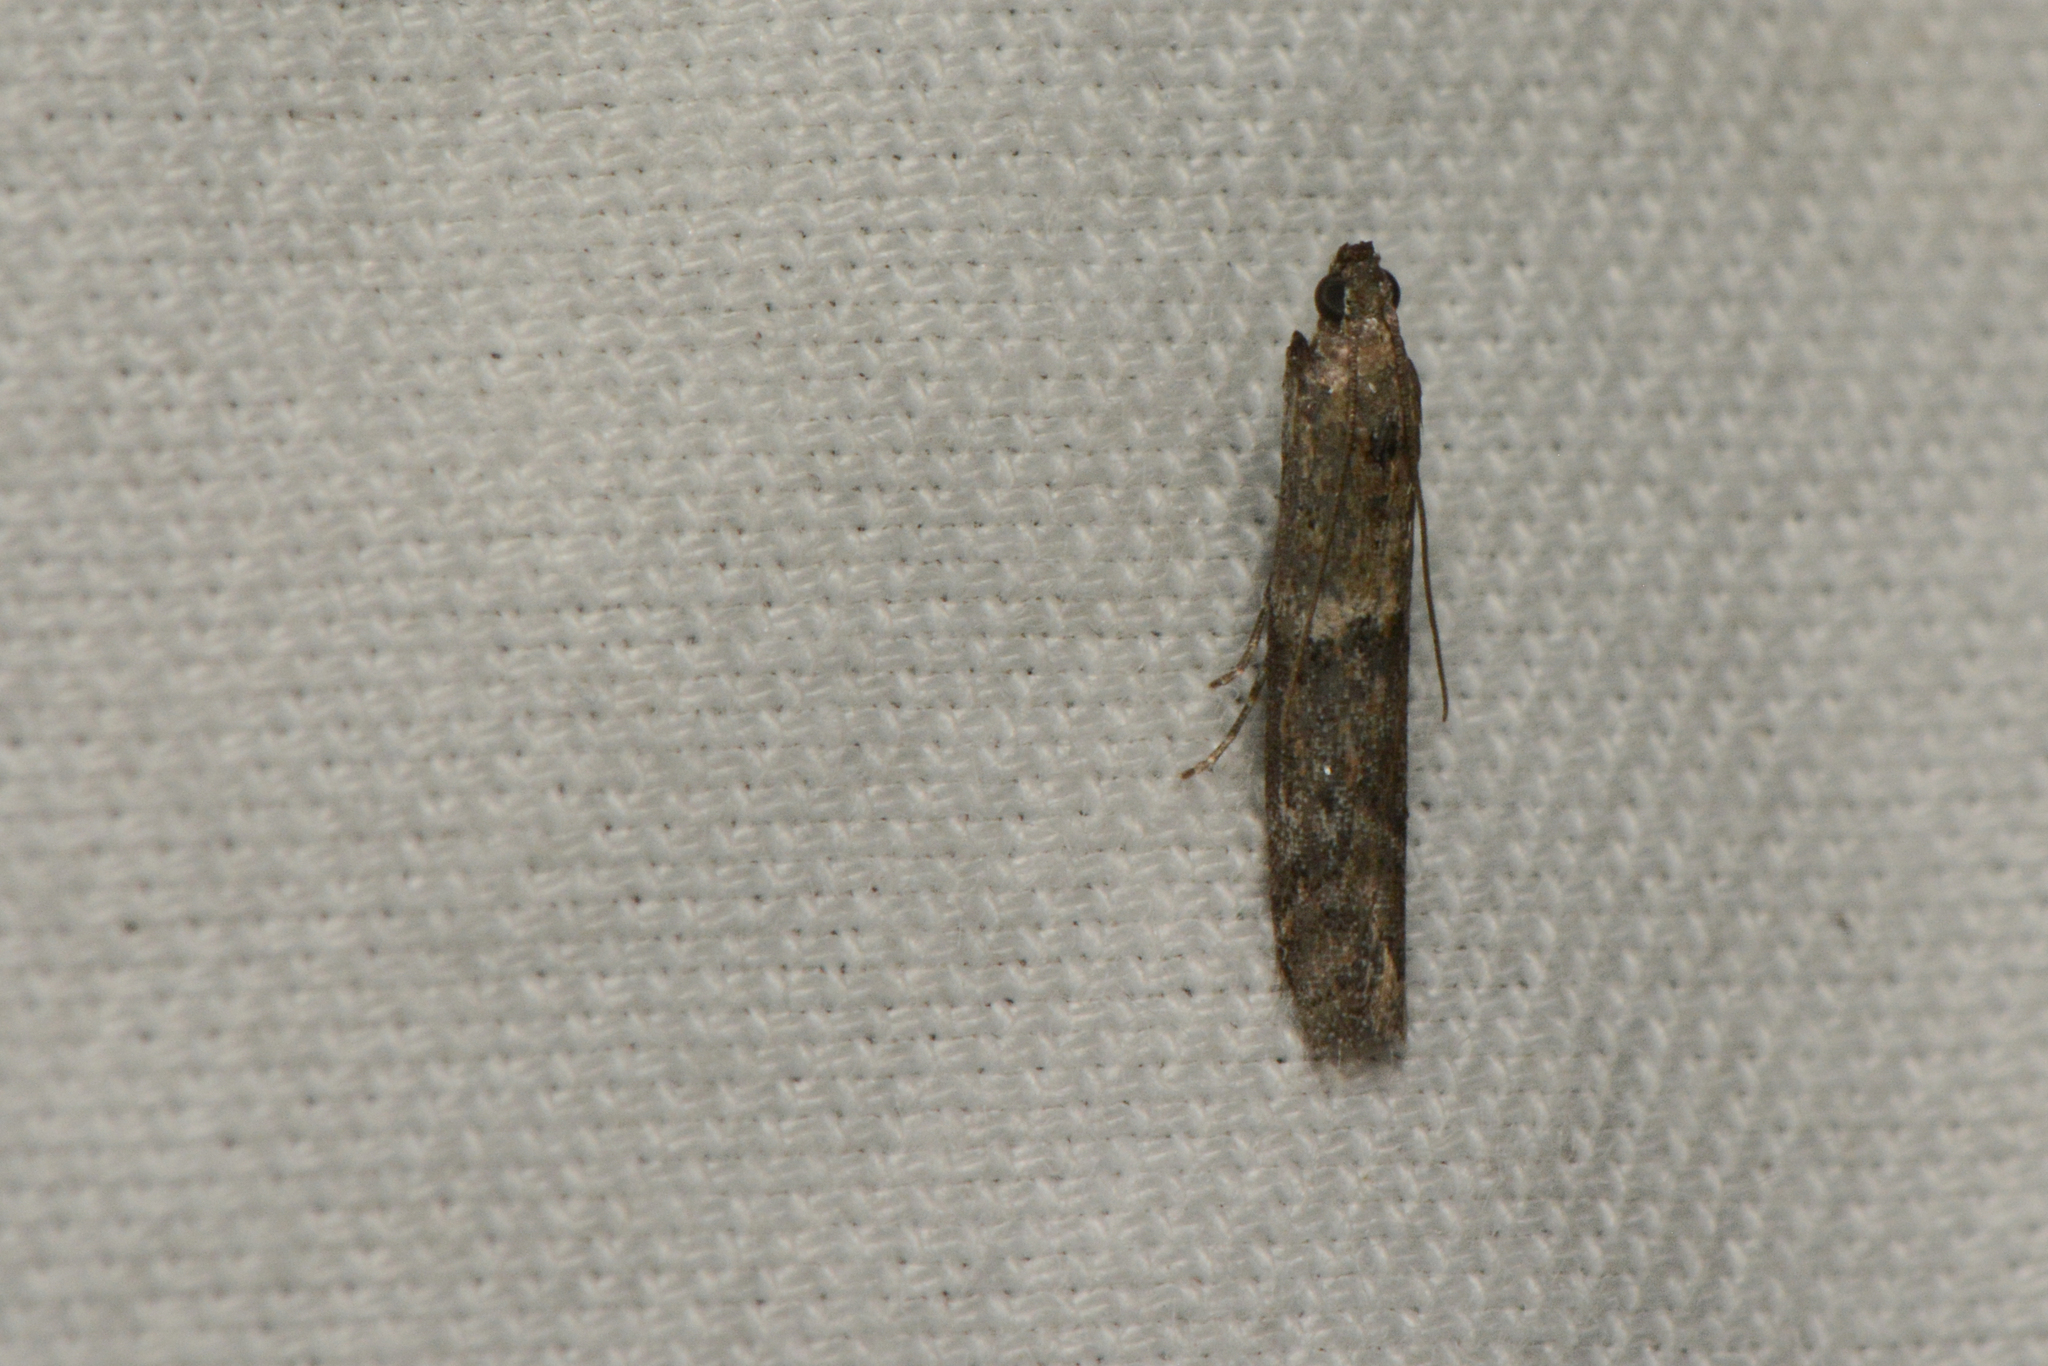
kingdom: Animalia
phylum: Arthropoda
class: Insecta
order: Lepidoptera
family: Pyralidae
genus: Ephestiodes
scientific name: Ephestiodes gilvescentella
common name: Moth
